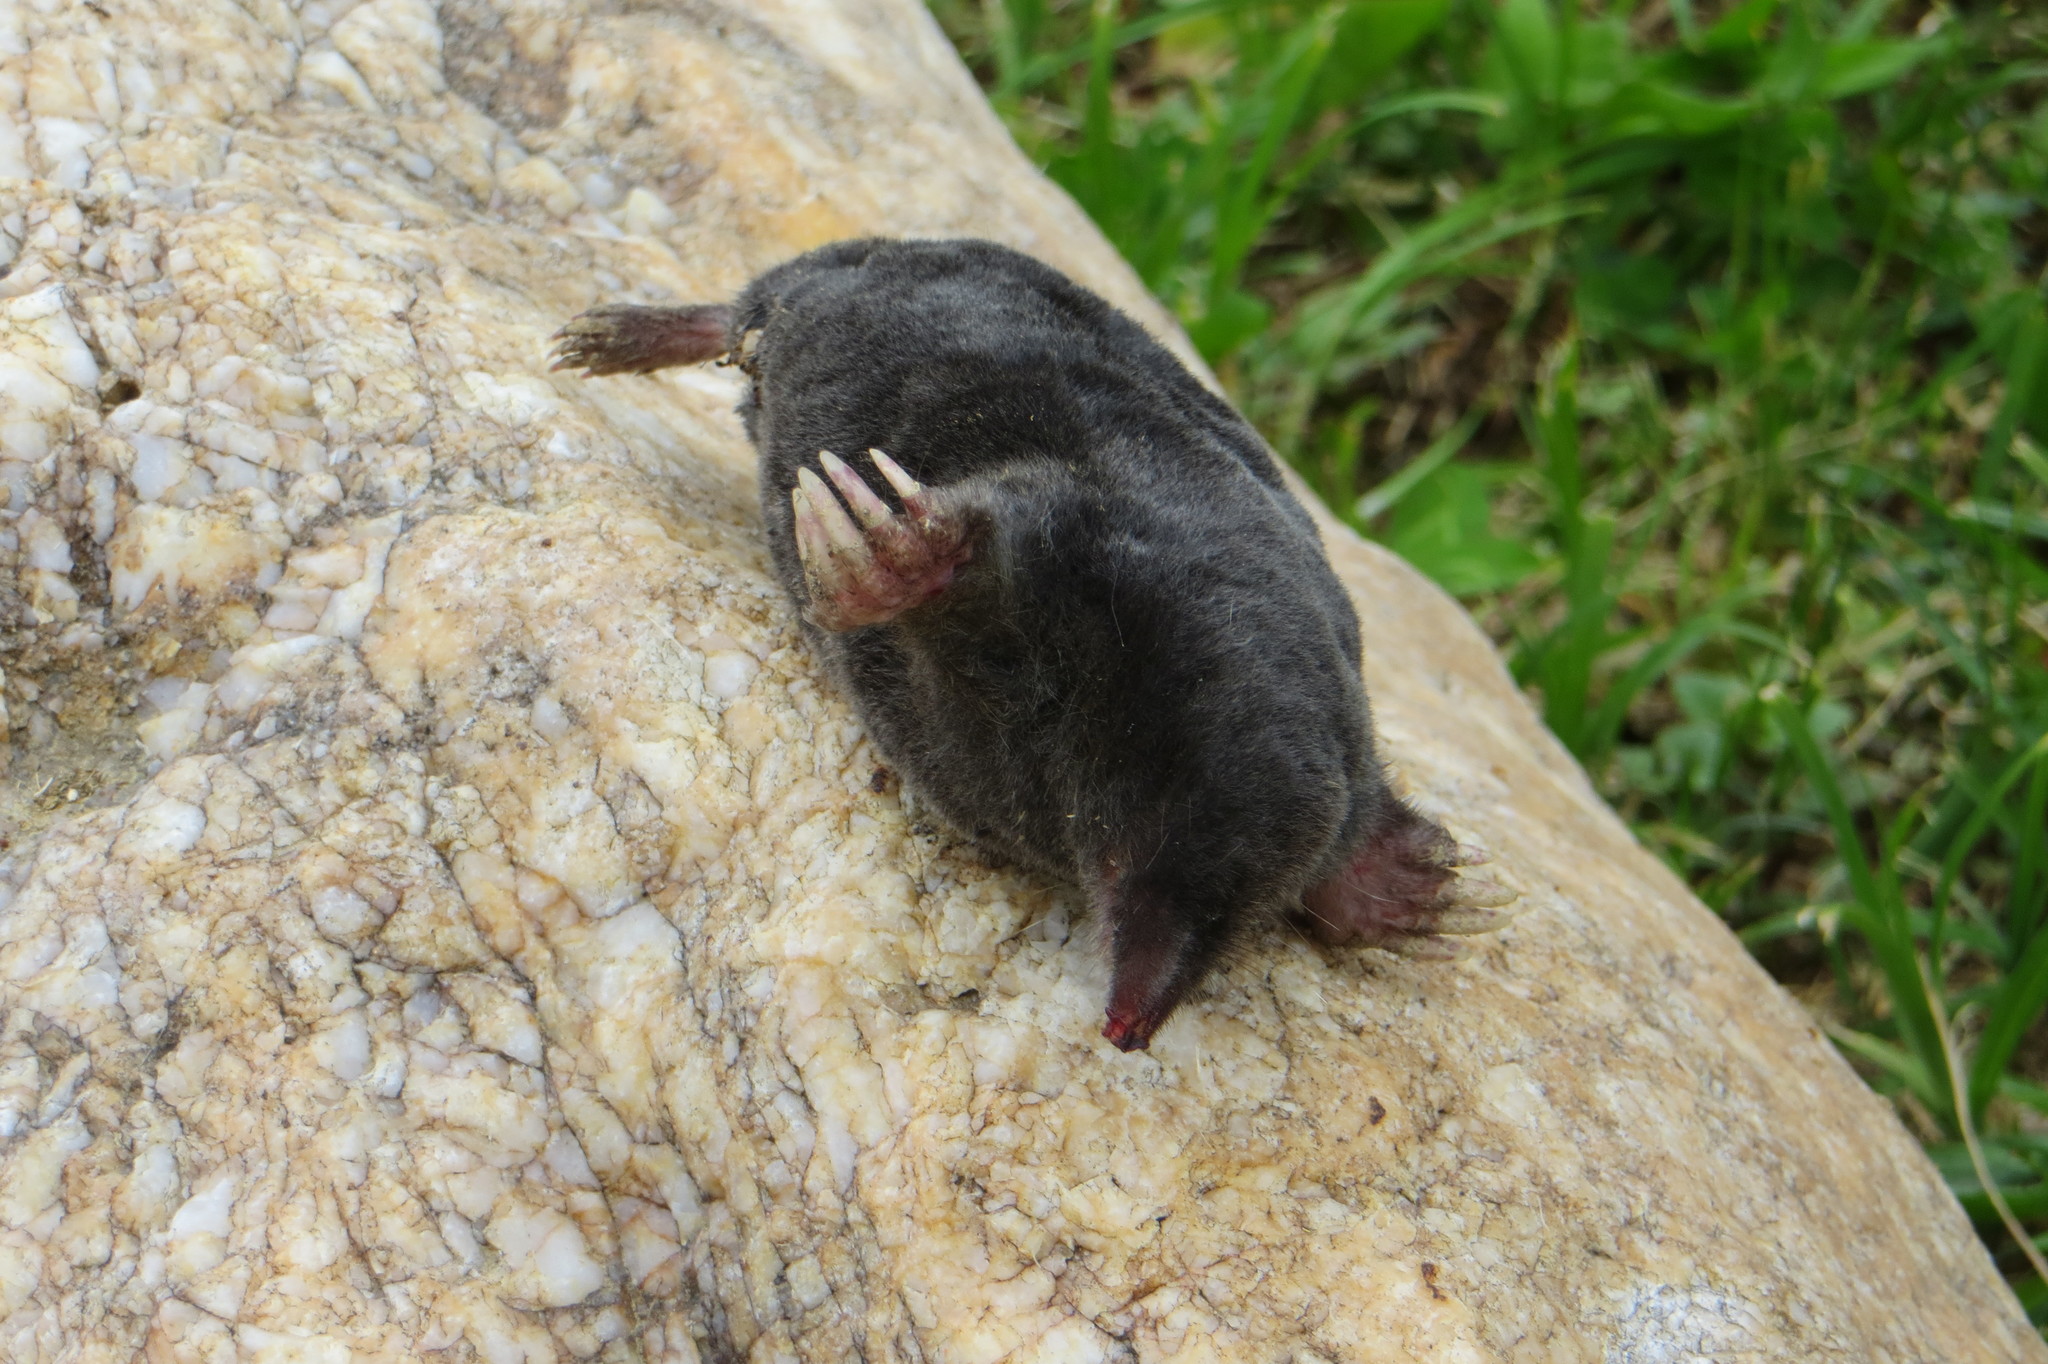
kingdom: Animalia
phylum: Chordata
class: Mammalia
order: Soricomorpha
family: Talpidae
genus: Talpa
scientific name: Talpa europaea
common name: European mole
